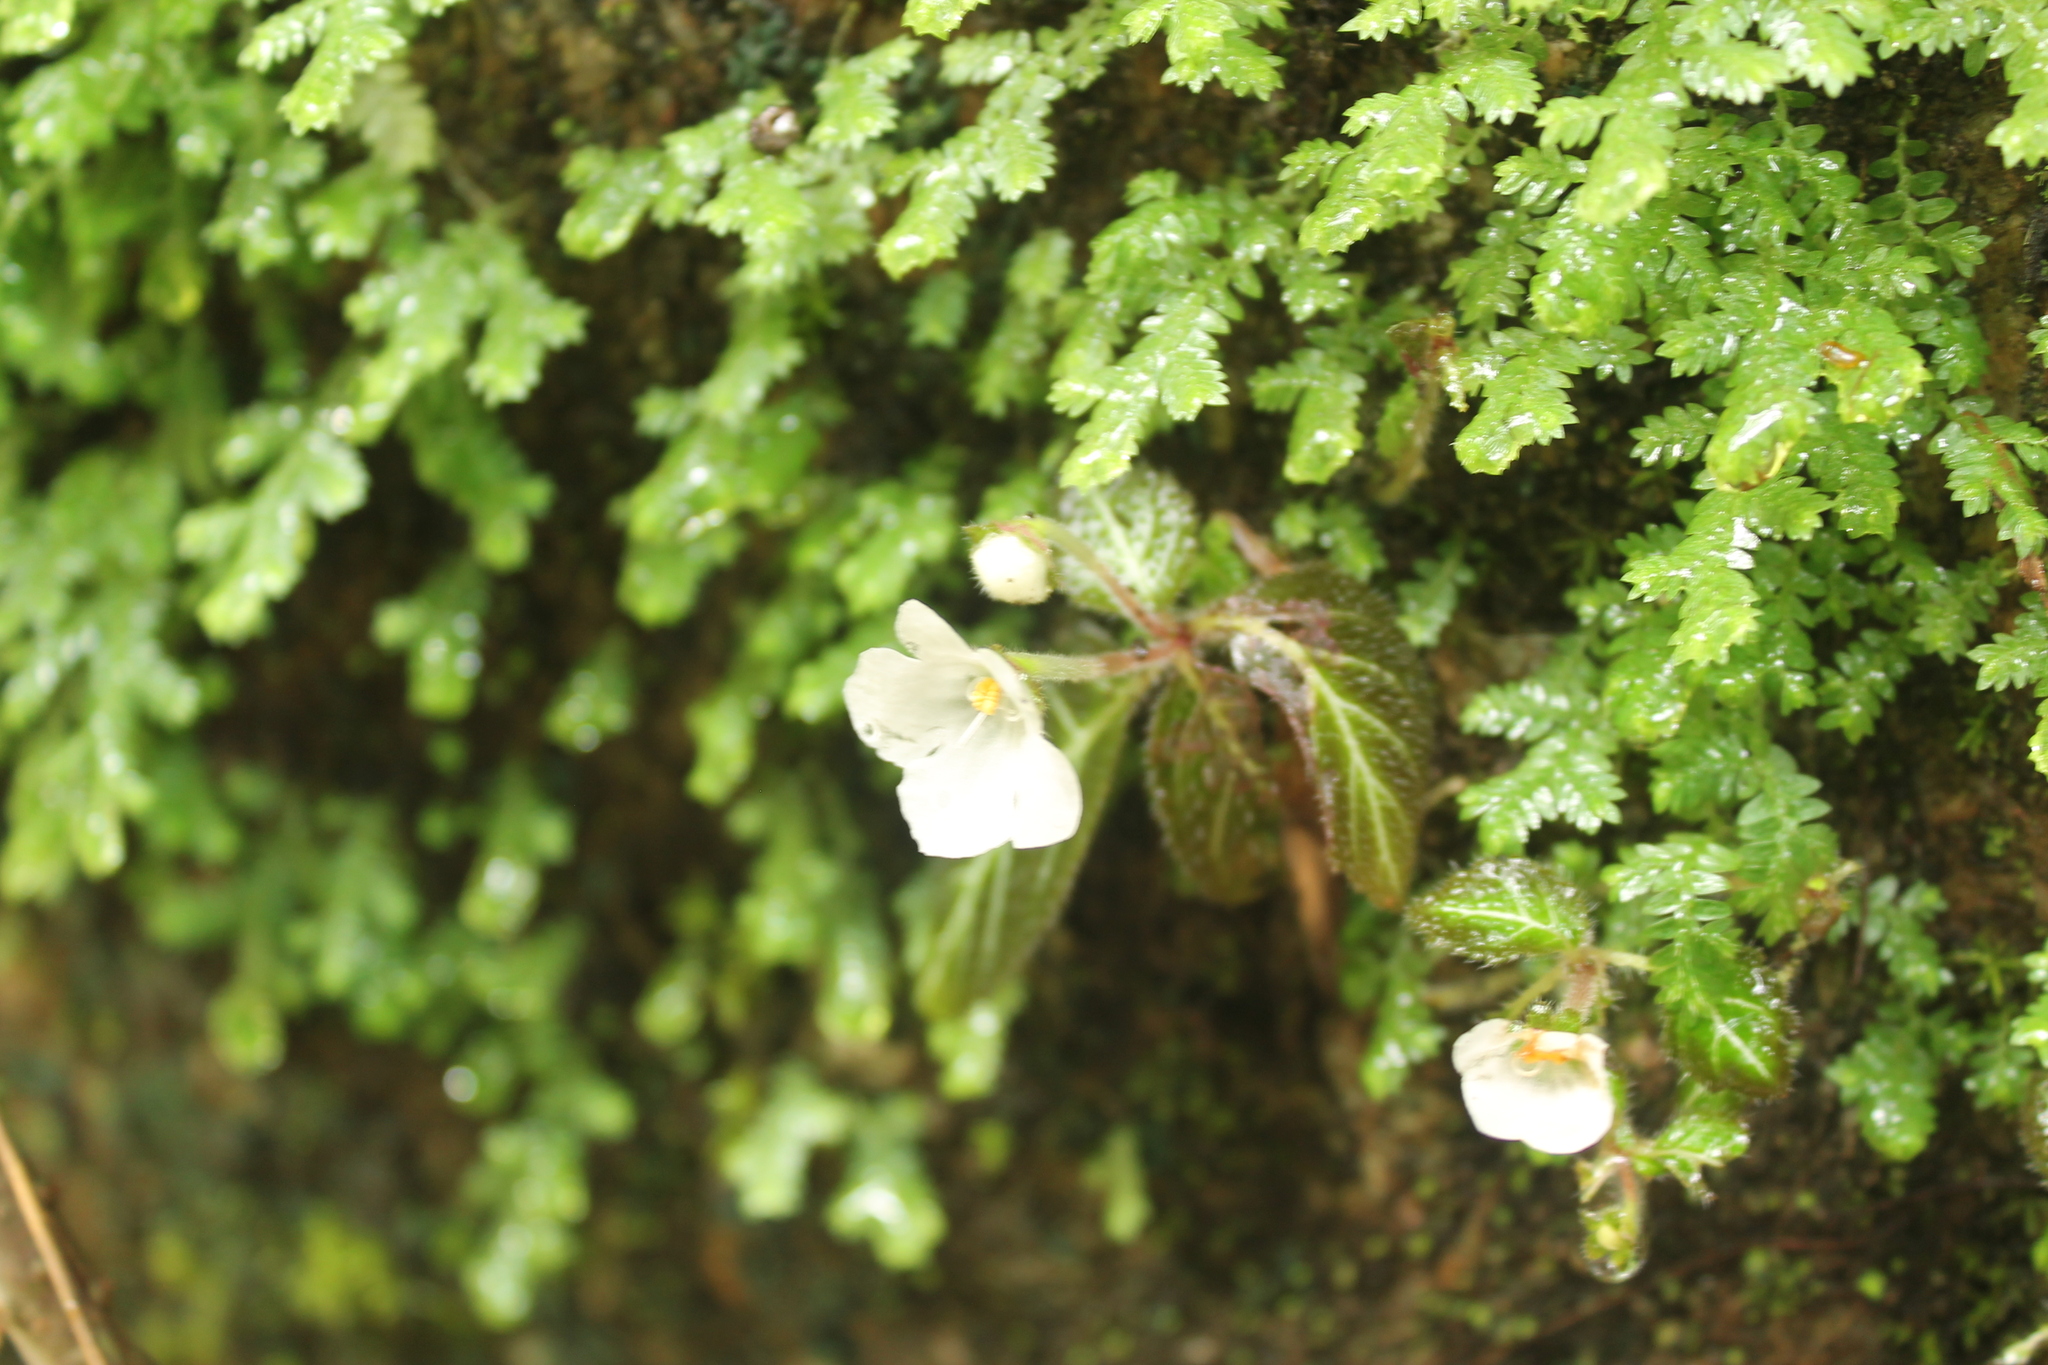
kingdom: Plantae
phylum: Tracheophyta
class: Magnoliopsida
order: Lamiales
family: Gesneriaceae
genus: Phinaea
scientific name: Phinaea multiflora
